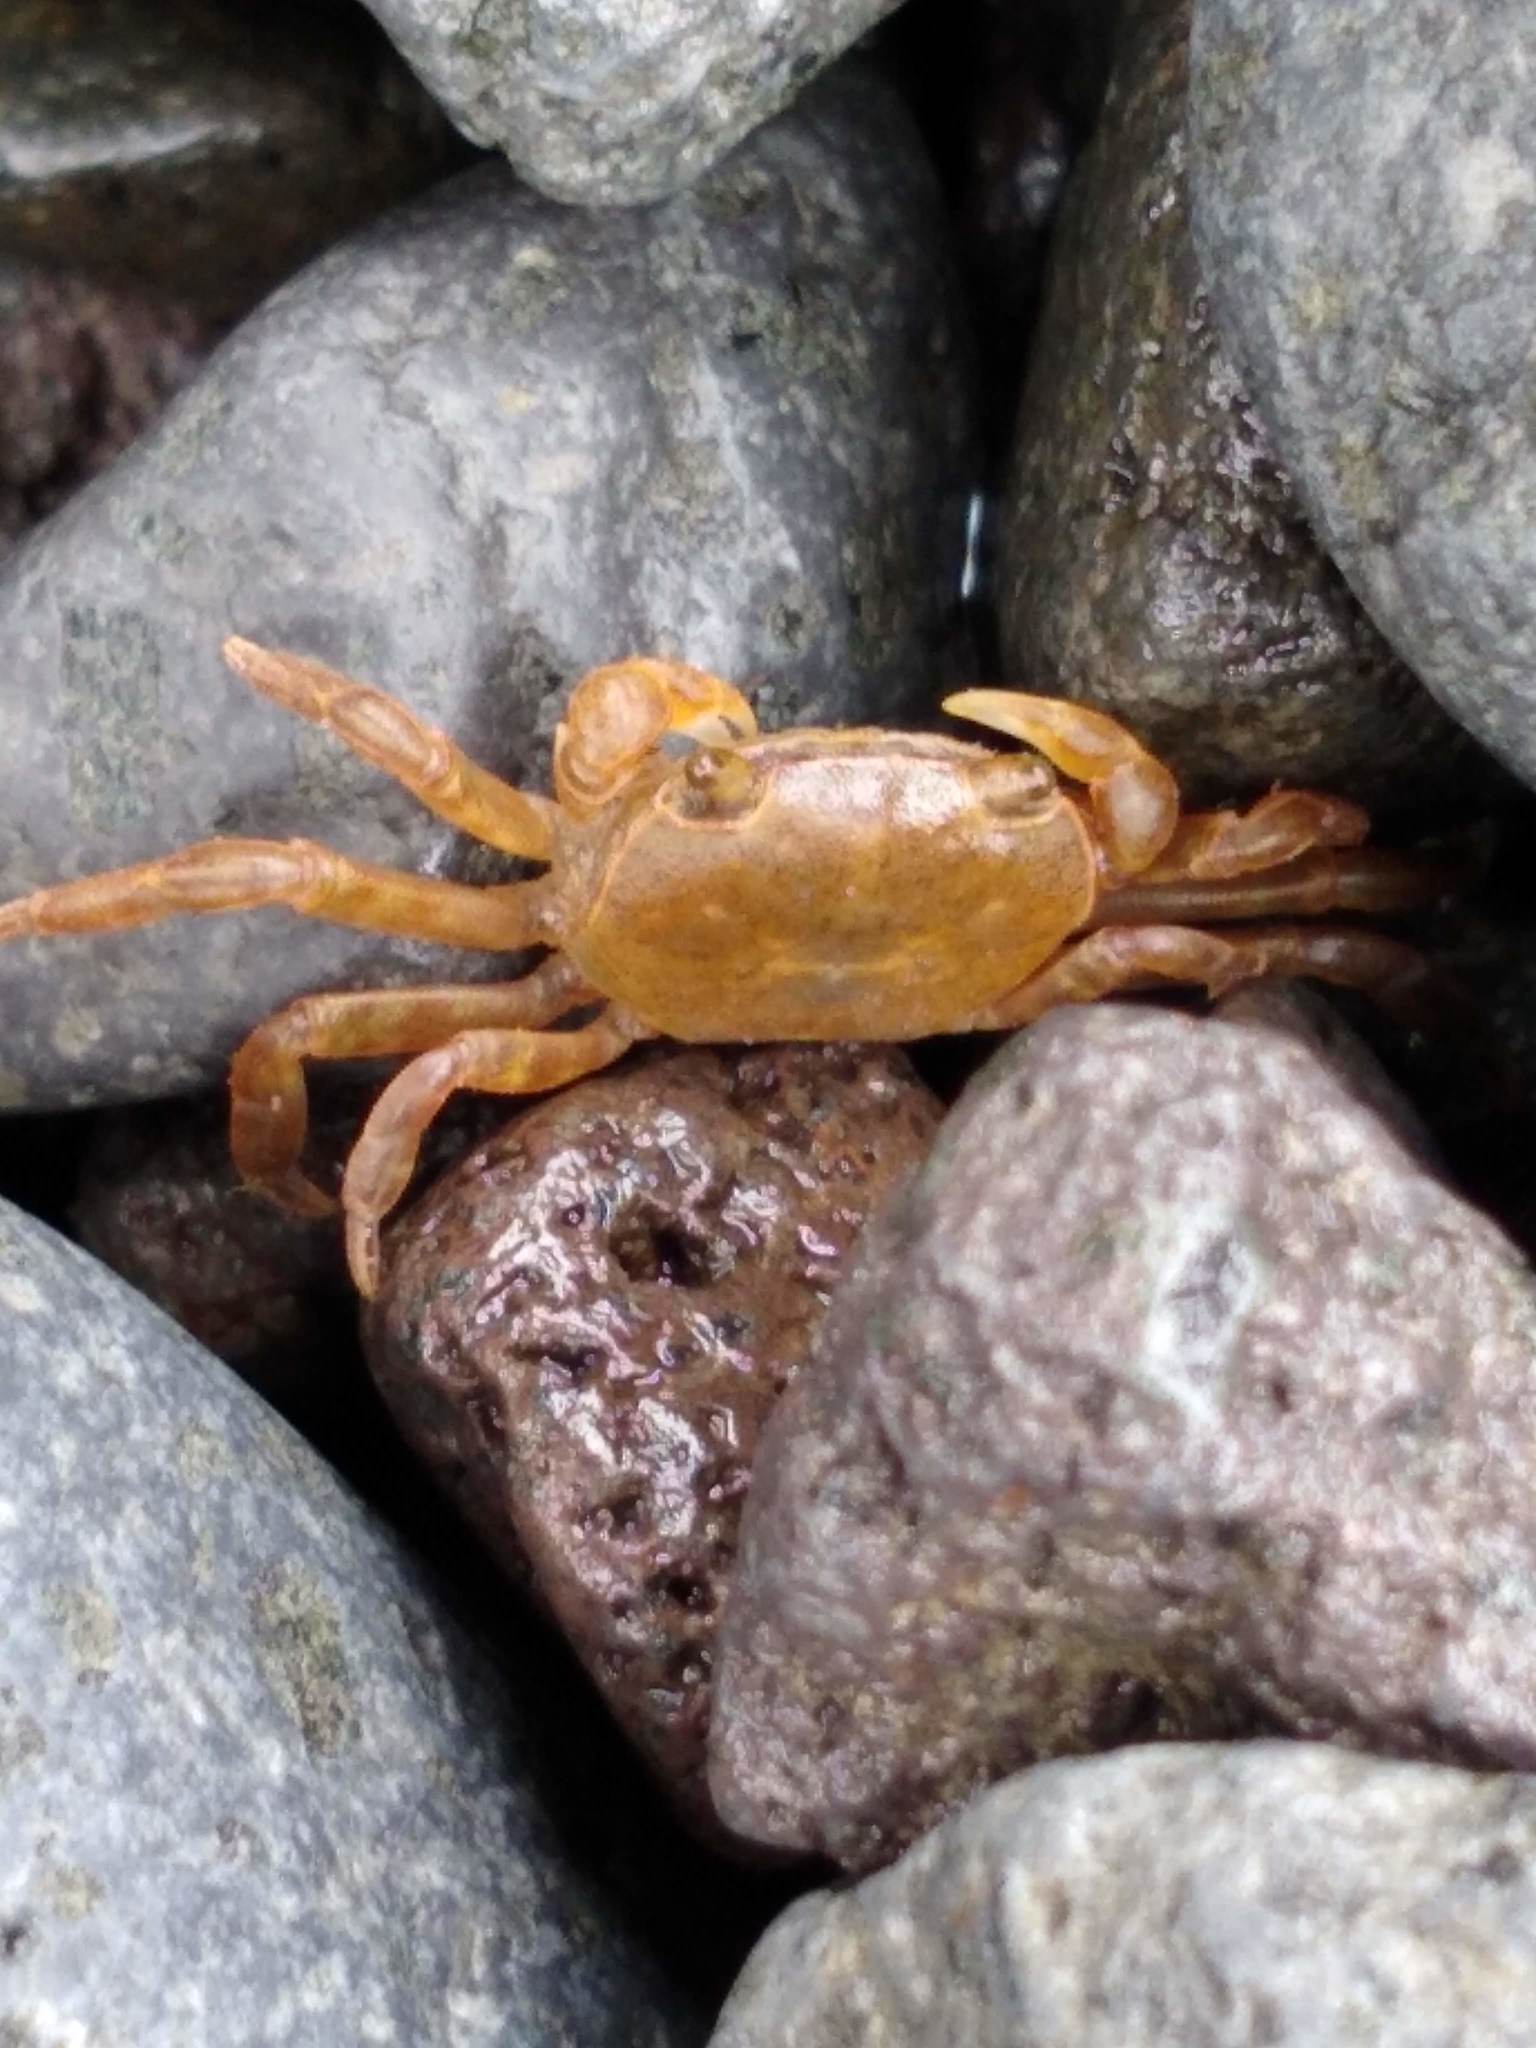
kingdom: Animalia
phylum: Arthropoda
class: Malacostraca
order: Decapoda
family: Varunidae
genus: Cyclograpsus
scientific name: Cyclograpsus lavauxi
